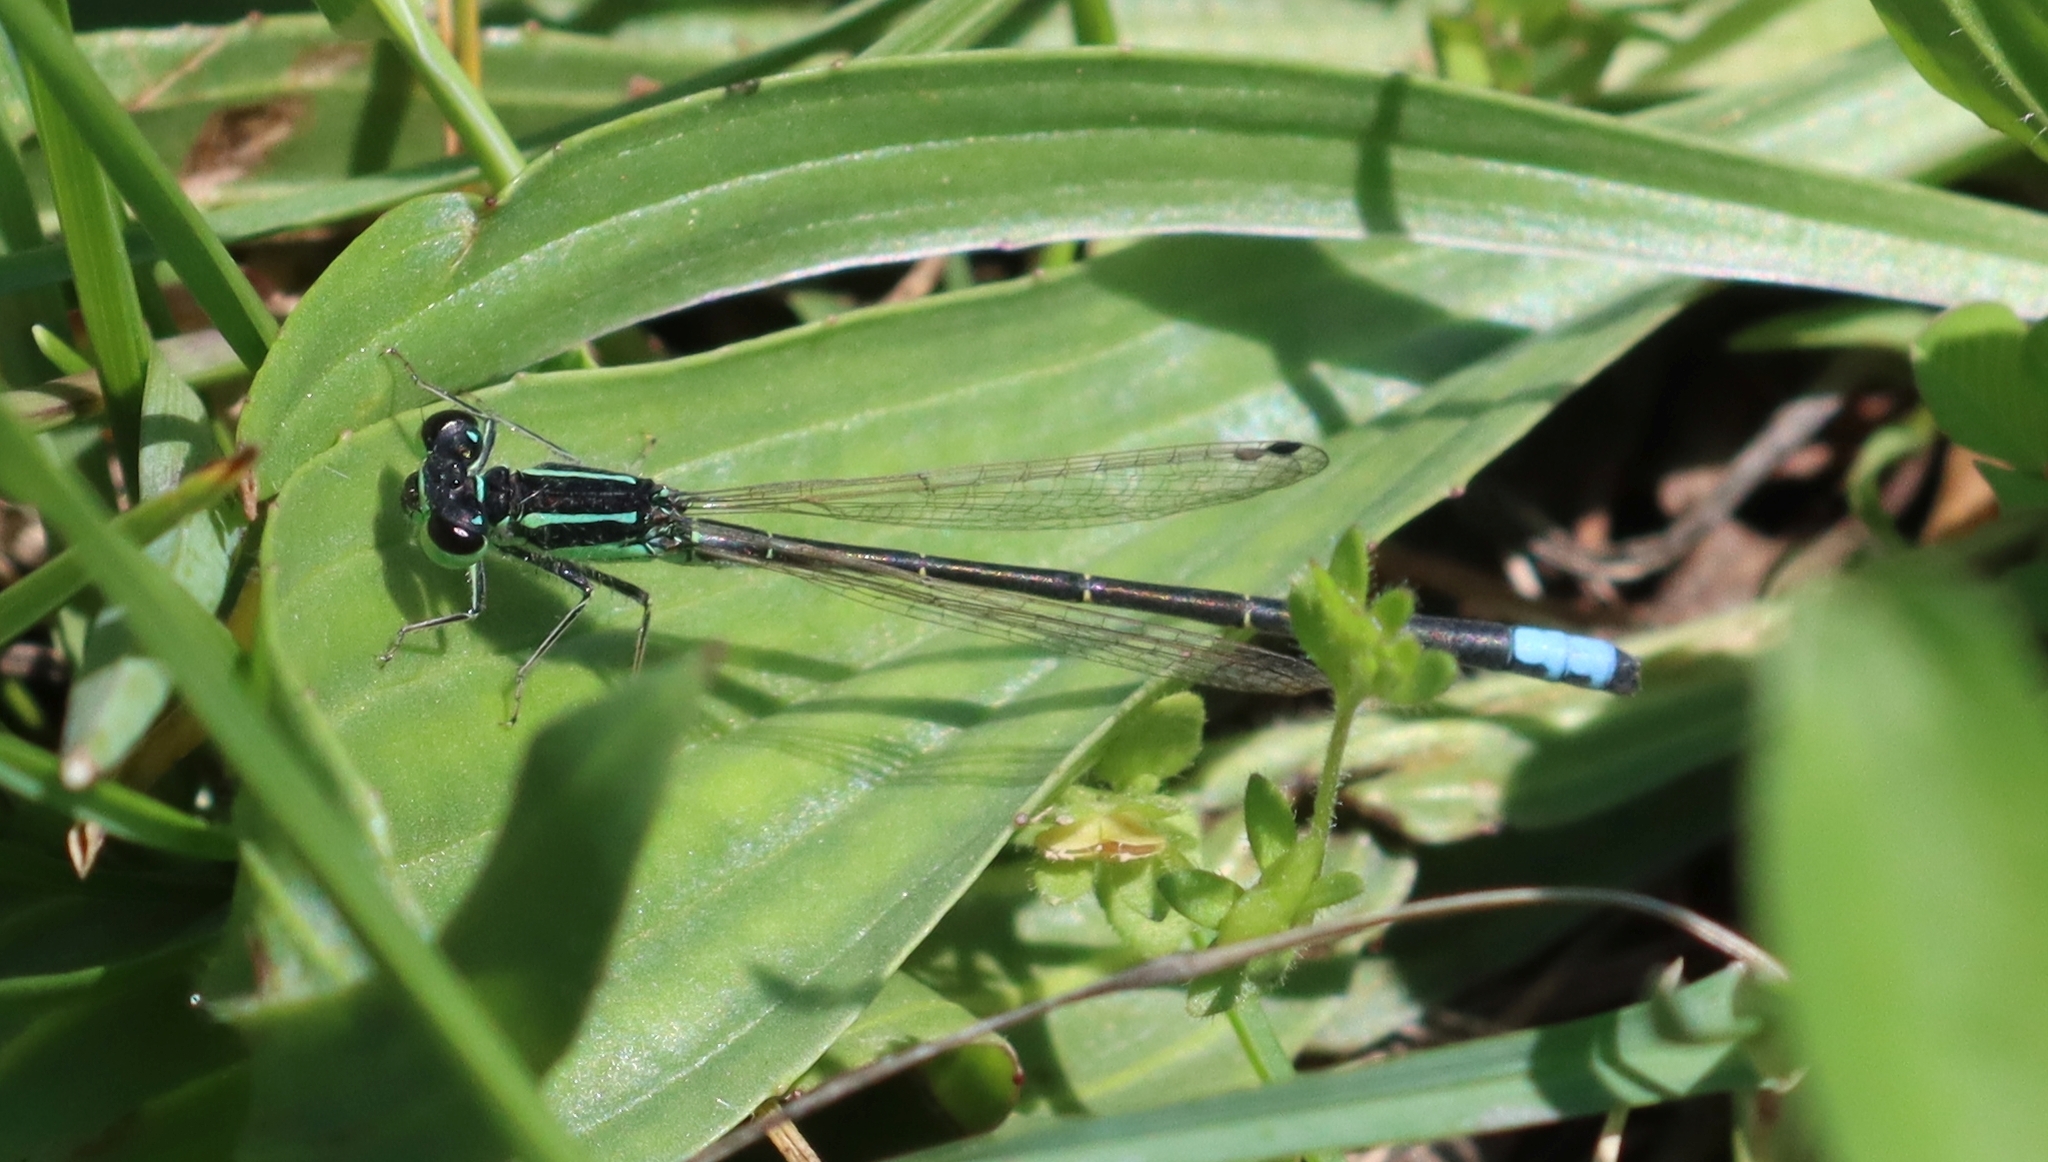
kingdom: Animalia
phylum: Arthropoda
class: Insecta
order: Odonata
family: Coenagrionidae
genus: Ischnura
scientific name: Ischnura verticalis
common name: Eastern forktail
